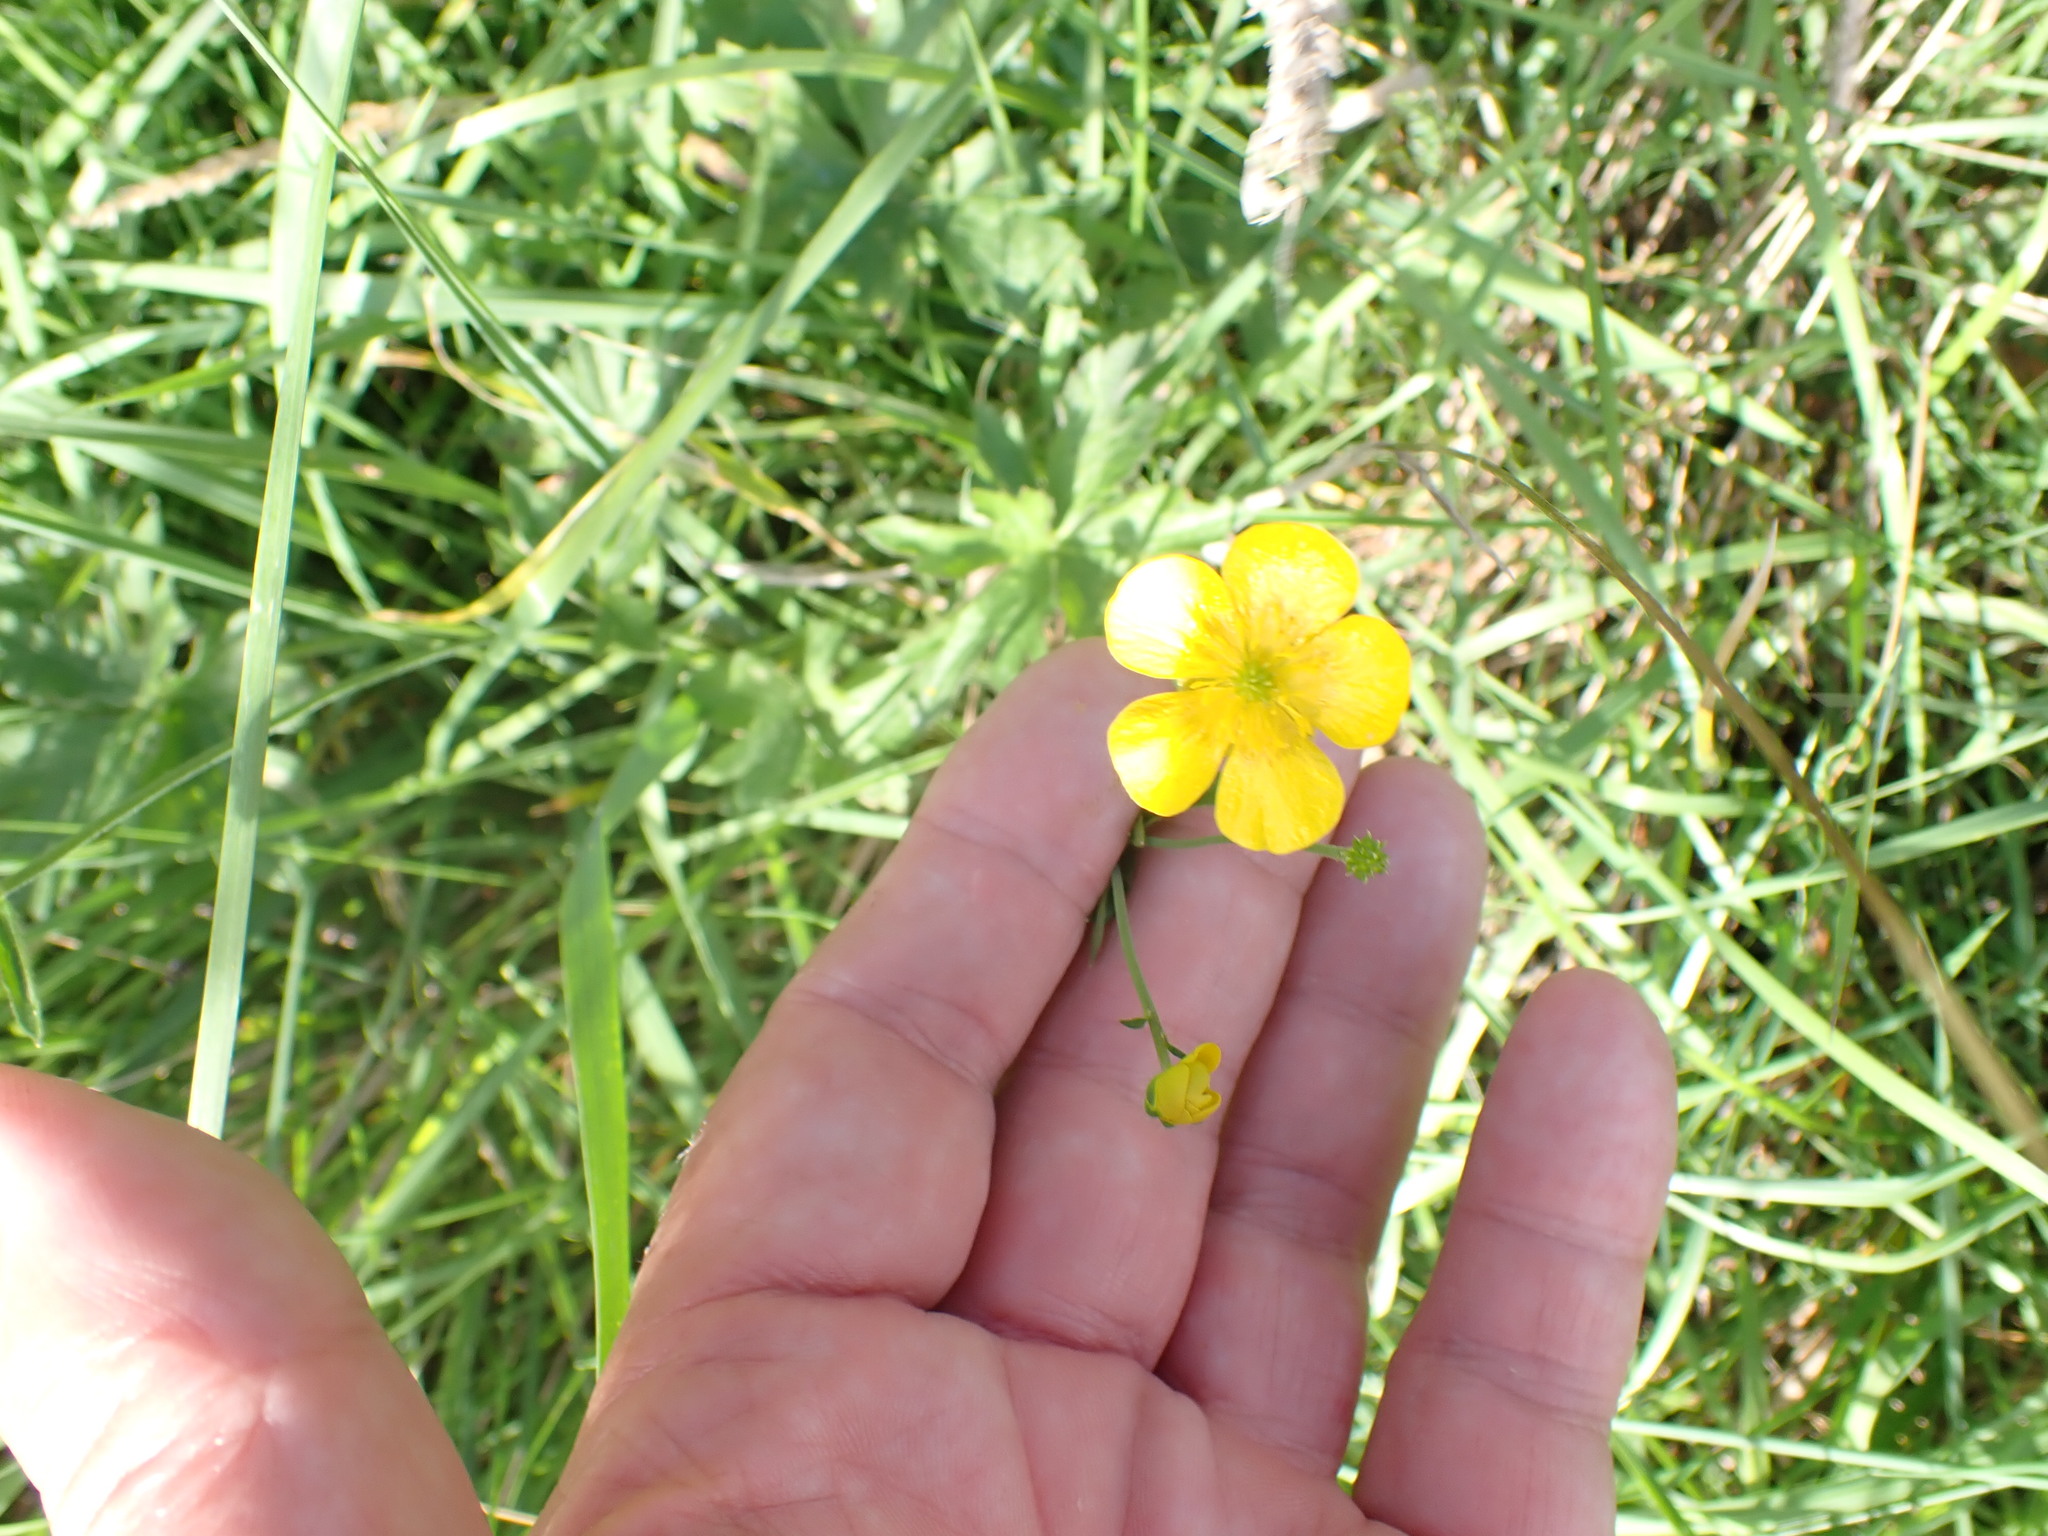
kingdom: Plantae
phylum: Tracheophyta
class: Magnoliopsida
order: Ranunculales
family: Ranunculaceae
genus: Ranunculus
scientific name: Ranunculus acris
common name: Meadow buttercup
